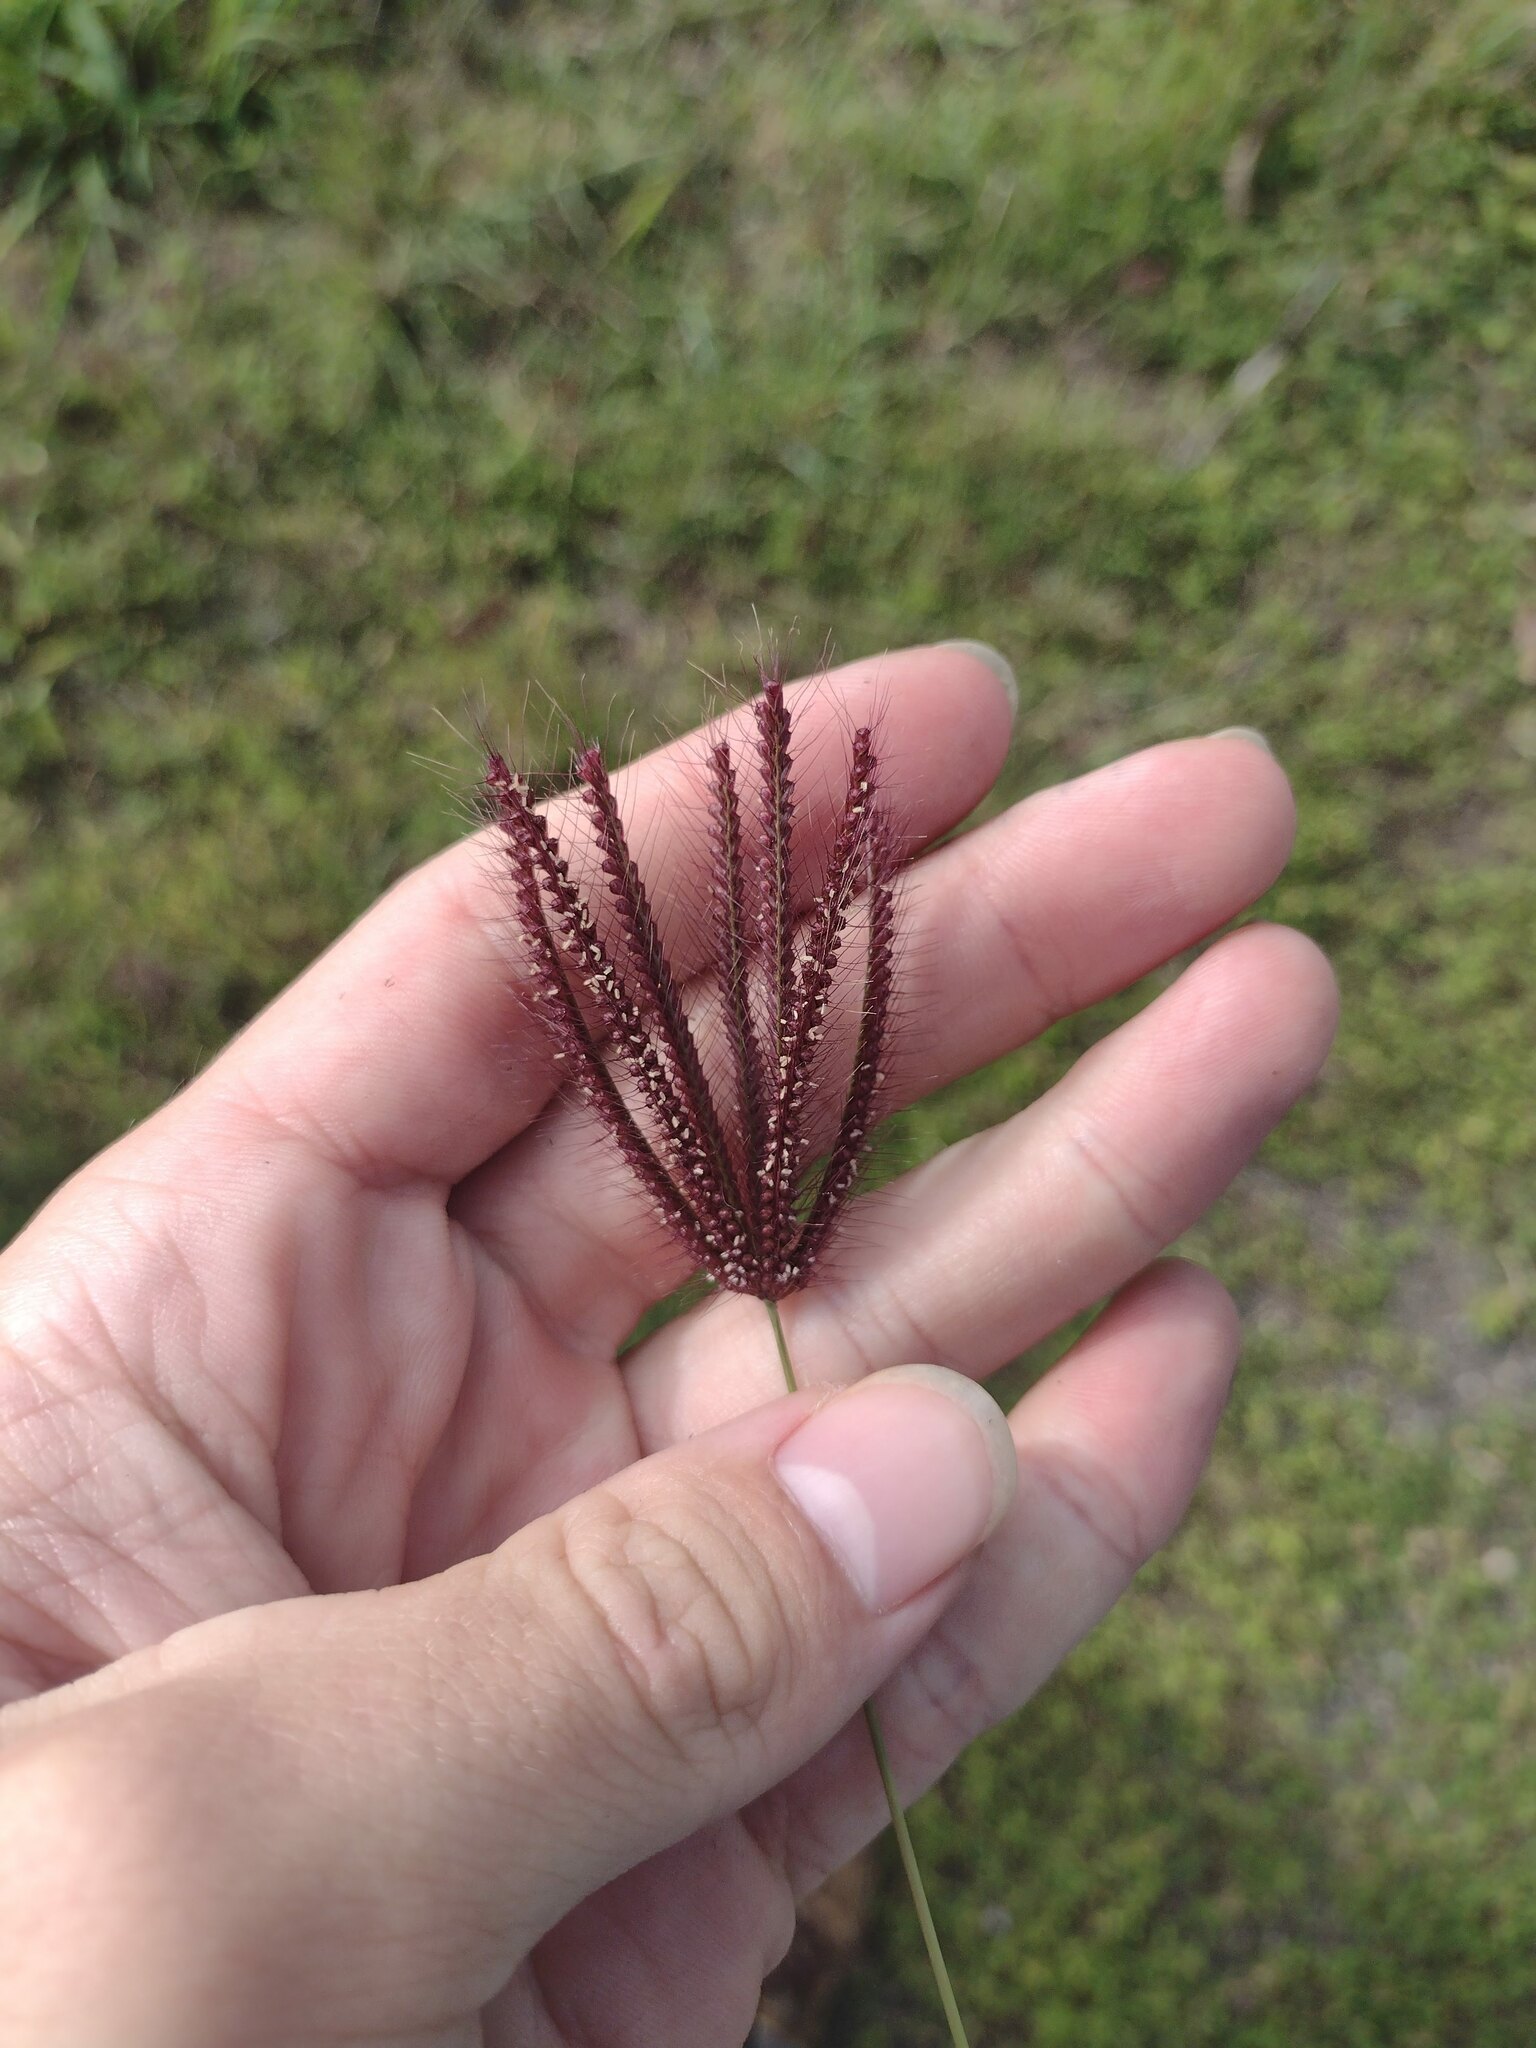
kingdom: Plantae
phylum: Tracheophyta
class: Liliopsida
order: Poales
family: Poaceae
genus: Chloris
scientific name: Chloris barbata
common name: Swollen fingergrass
